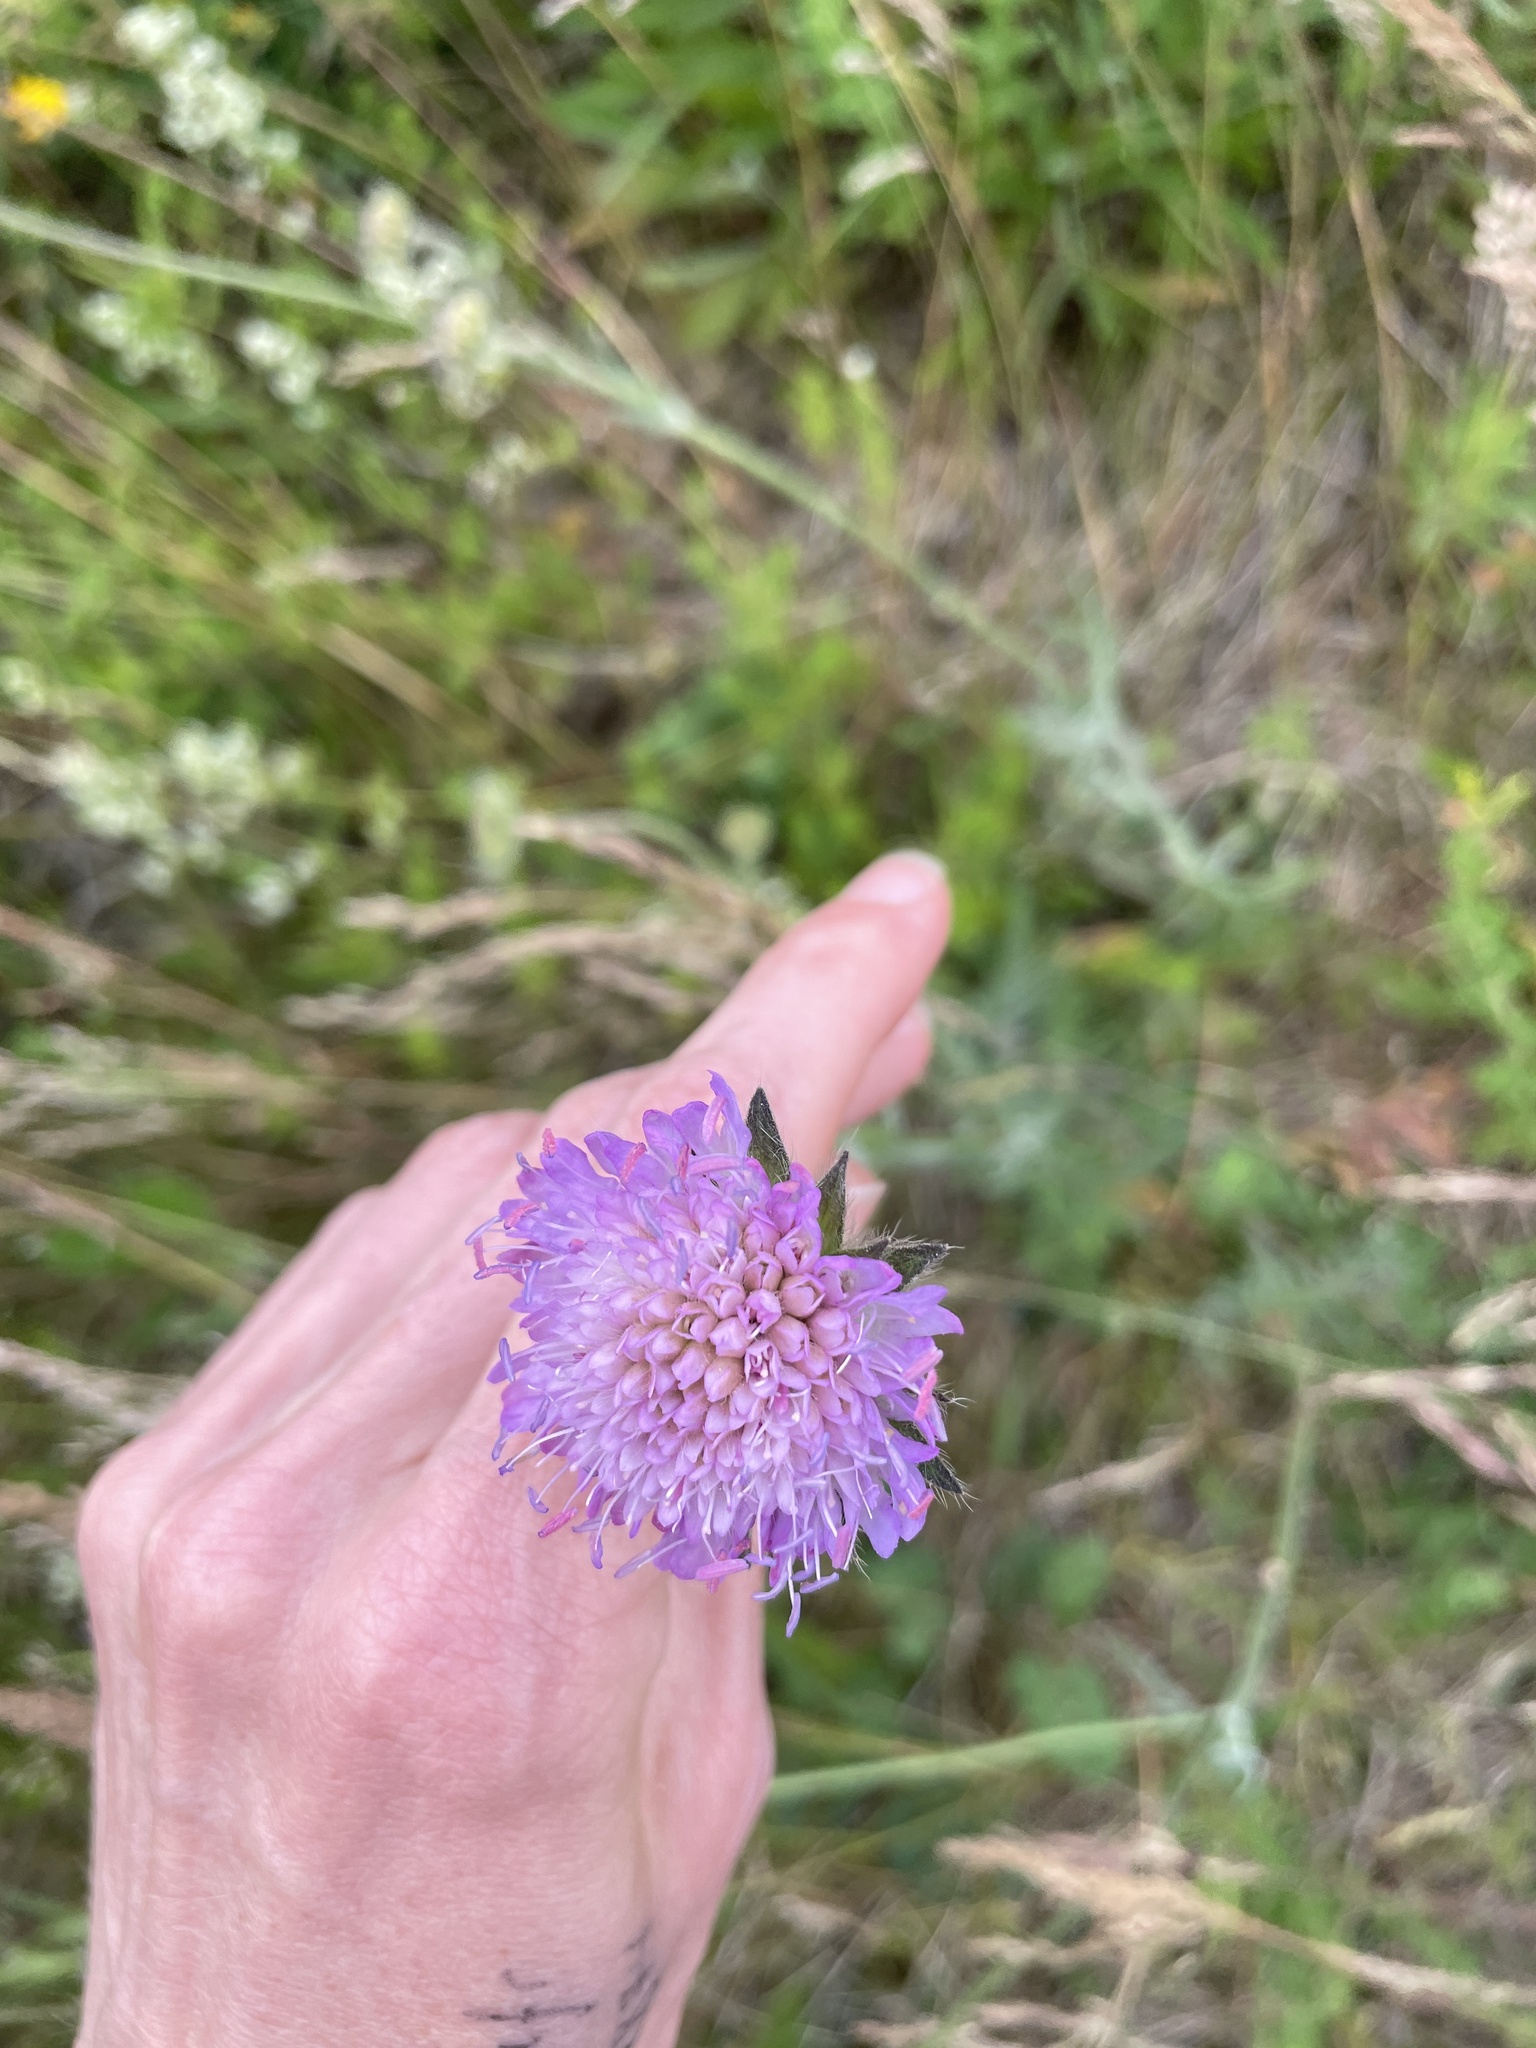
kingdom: Plantae
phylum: Tracheophyta
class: Magnoliopsida
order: Dipsacales
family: Caprifoliaceae
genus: Knautia
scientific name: Knautia arvensis
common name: Field scabiosa
